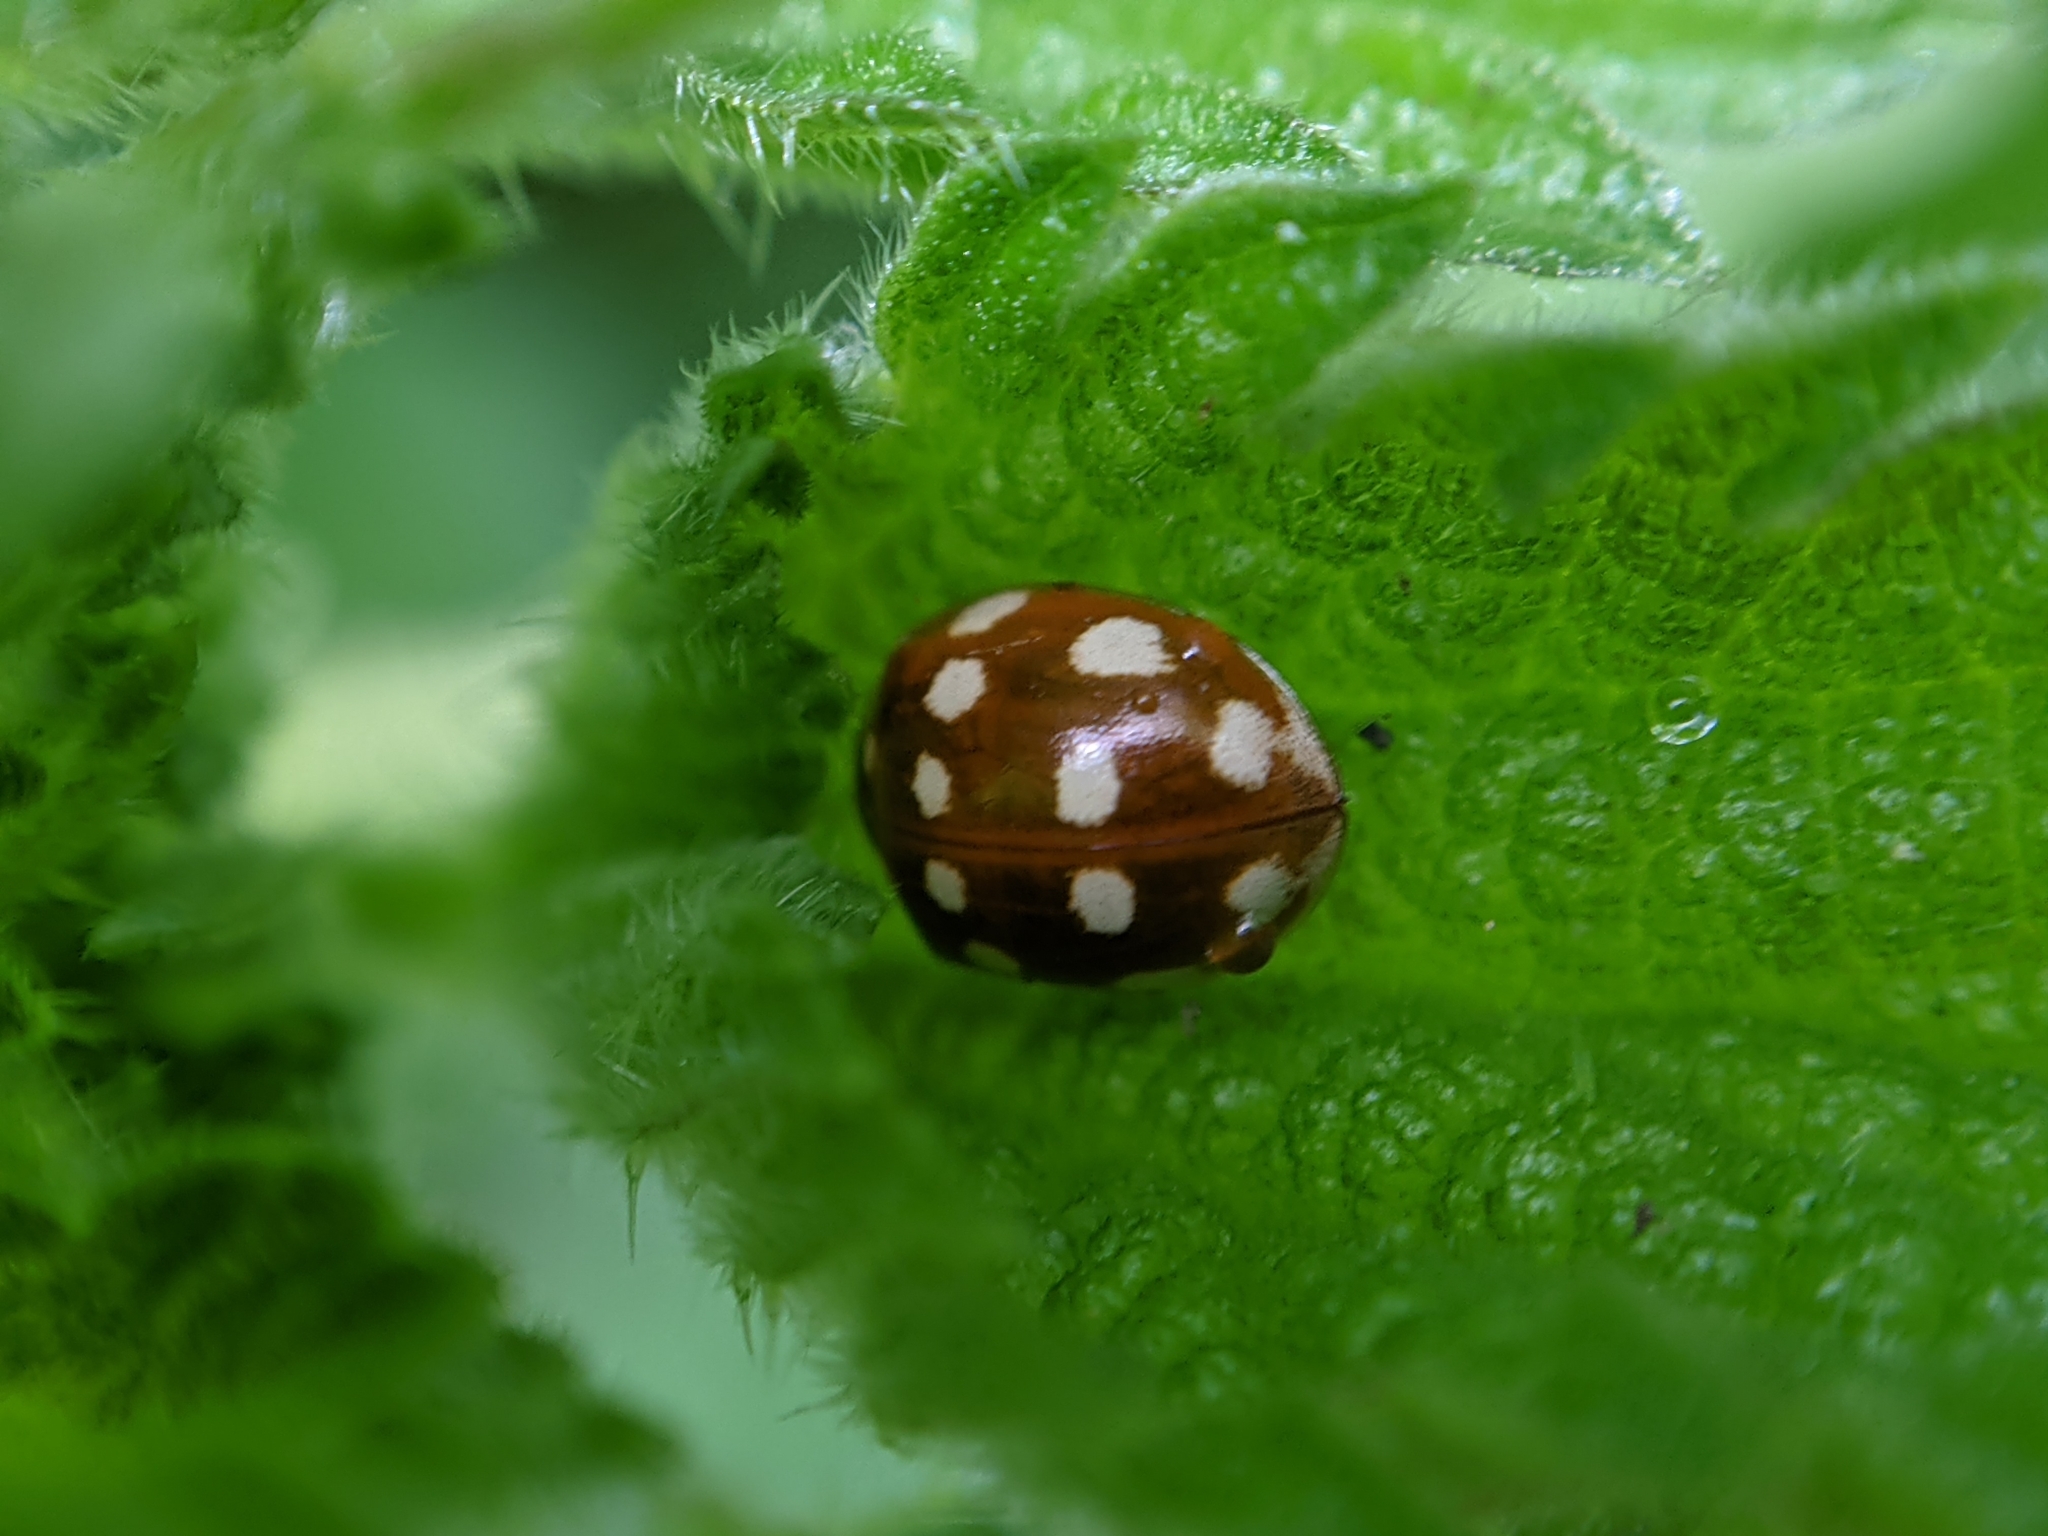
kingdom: Animalia
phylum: Arthropoda
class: Insecta
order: Coleoptera
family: Coccinellidae
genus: Calvia
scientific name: Calvia quatuordecimguttata
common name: Cream-spot ladybird
